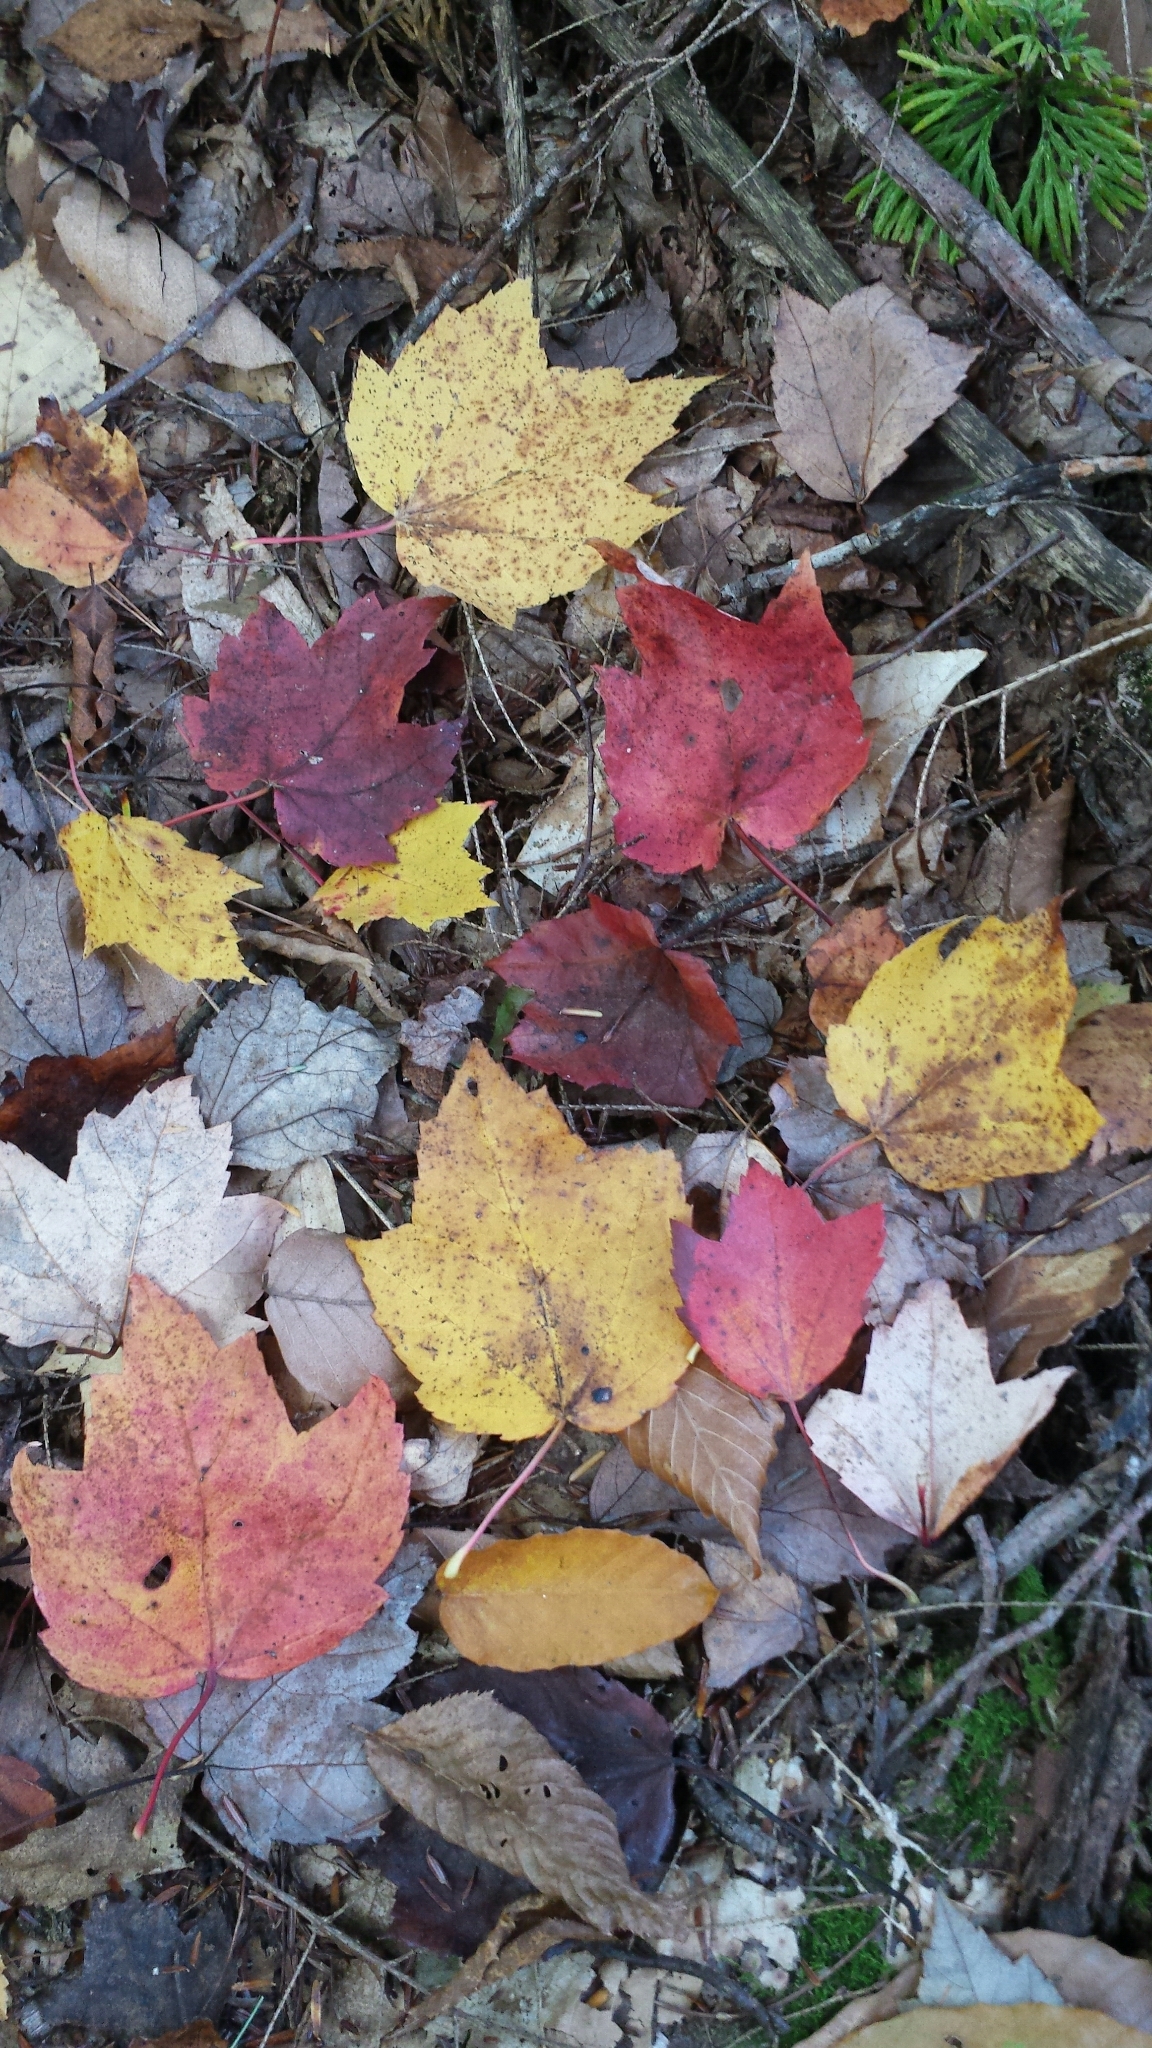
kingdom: Plantae
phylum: Tracheophyta
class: Magnoliopsida
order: Sapindales
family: Sapindaceae
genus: Acer
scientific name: Acer rubrum
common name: Red maple
